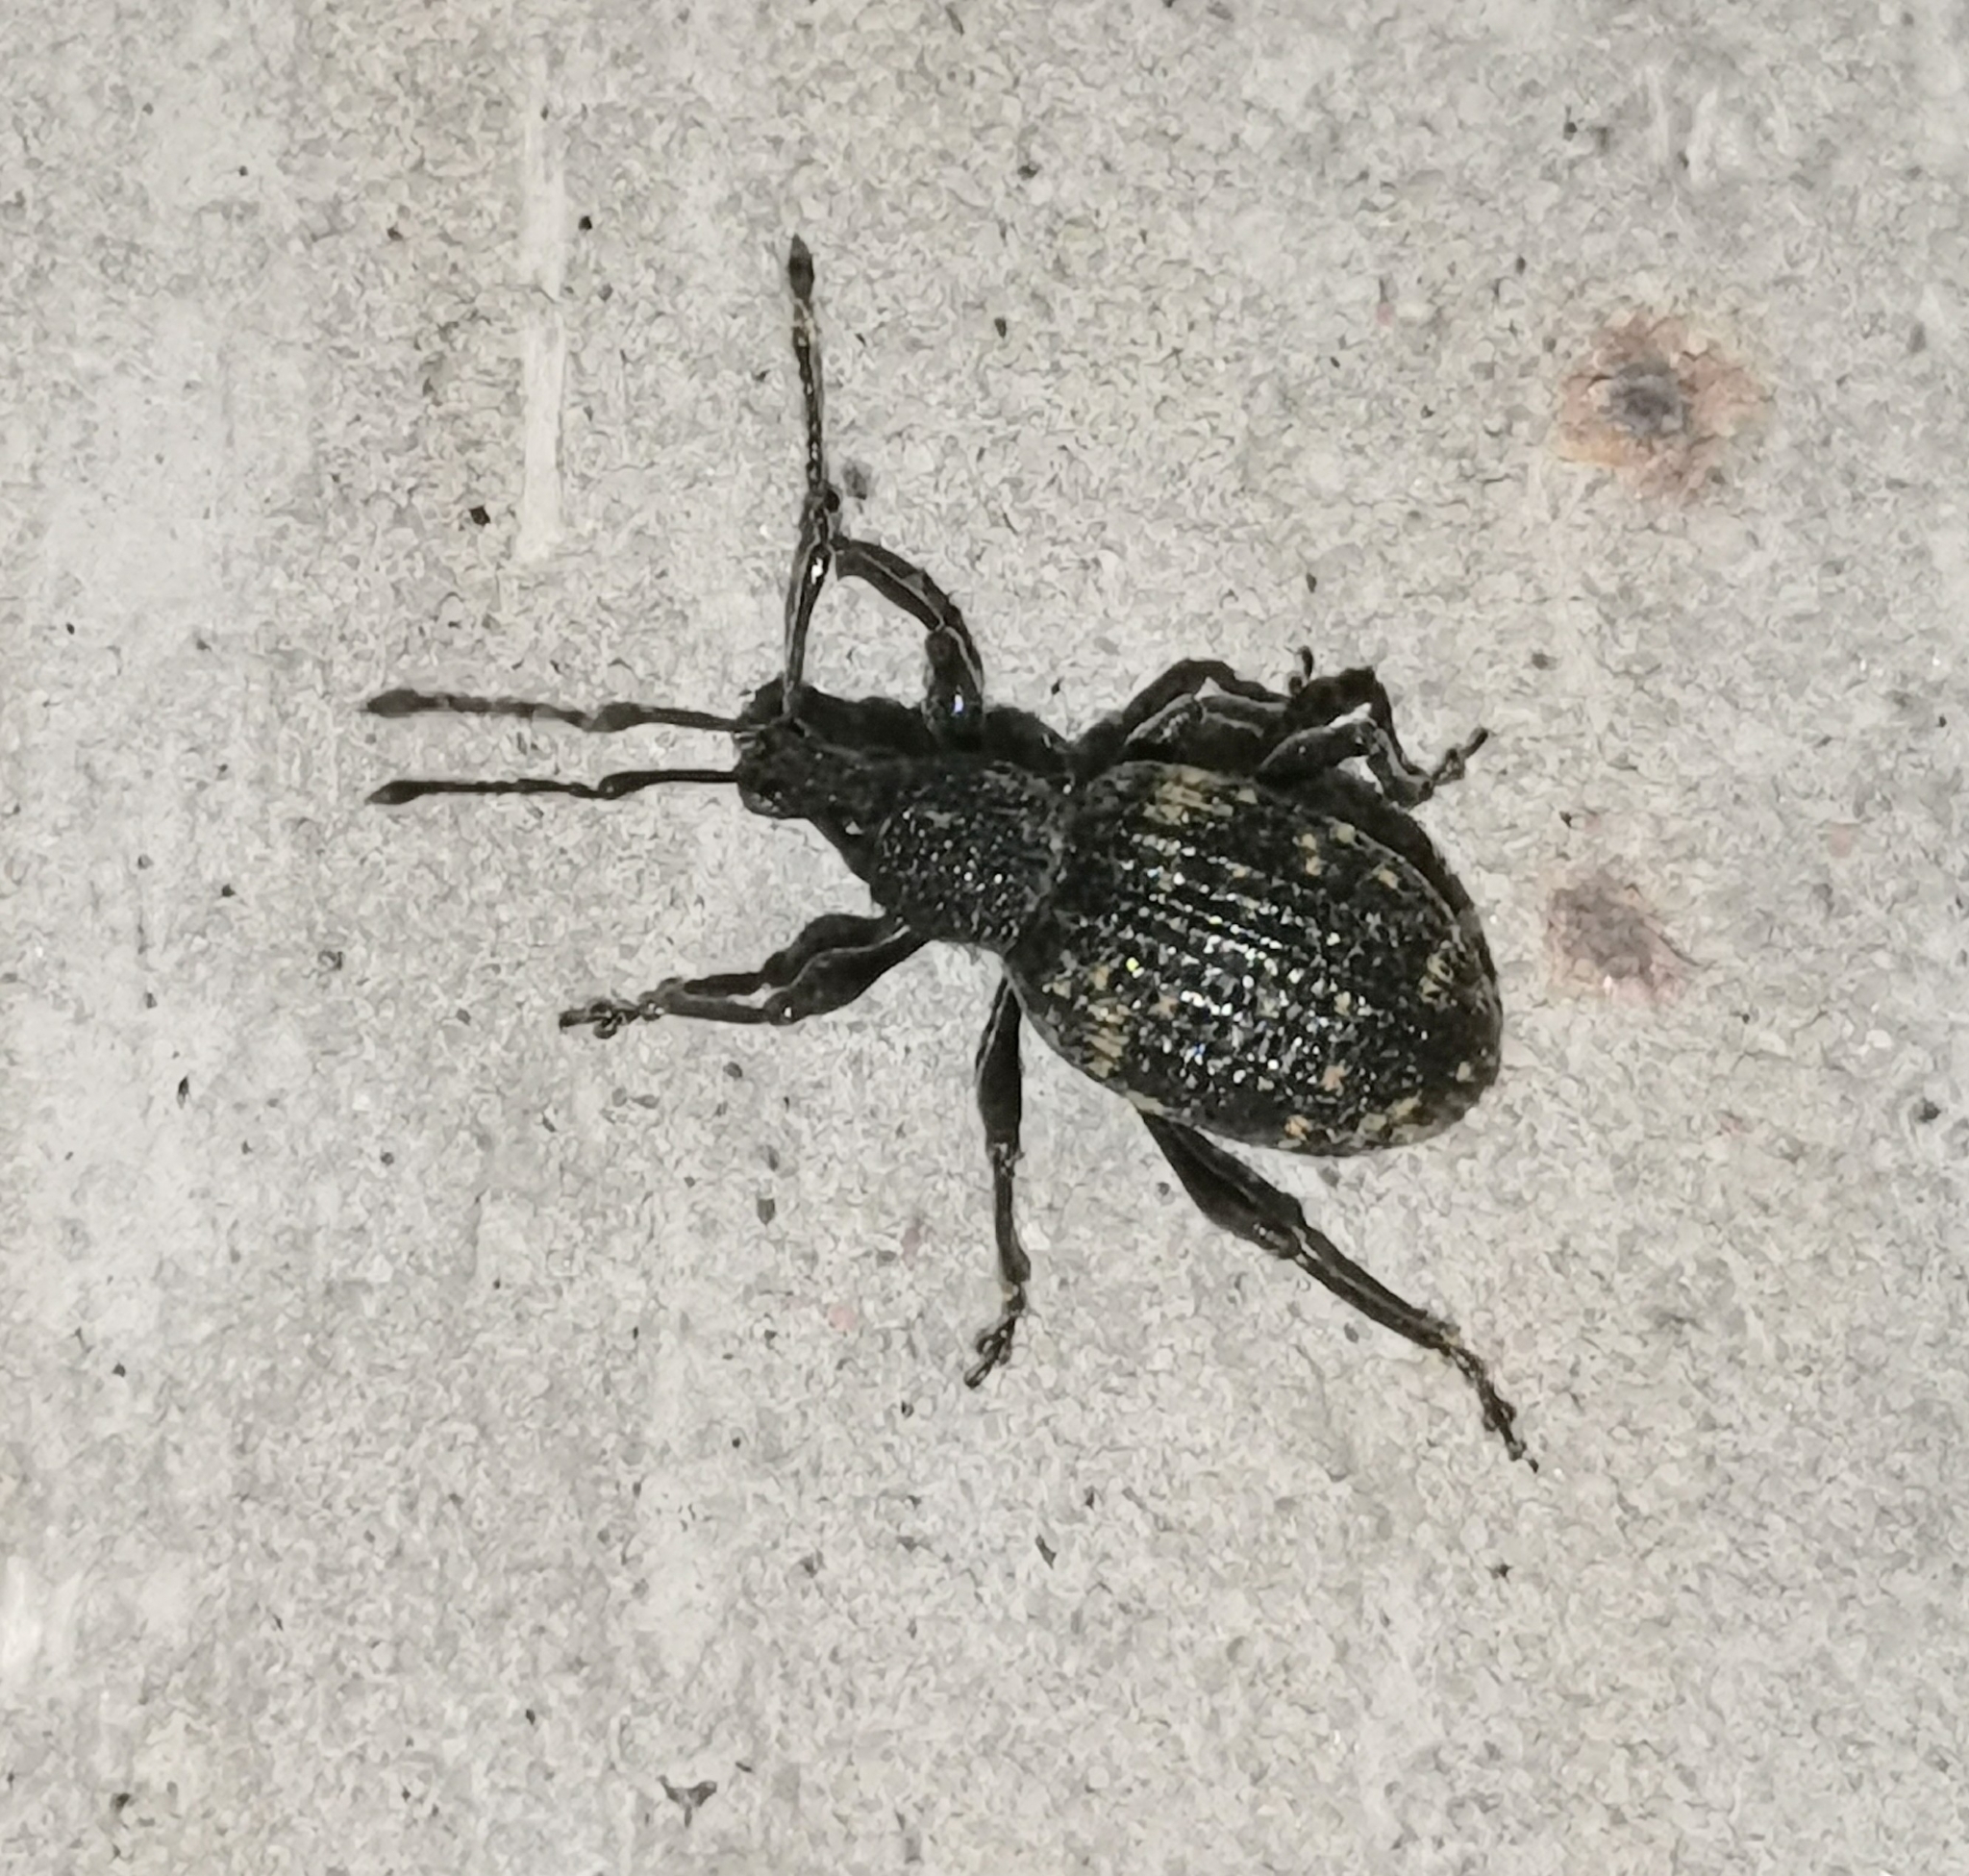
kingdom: Animalia
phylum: Arthropoda
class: Insecta
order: Coleoptera
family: Curculionidae
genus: Otiorhynchus
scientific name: Otiorhynchus sulcatus
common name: Black vine weevil
